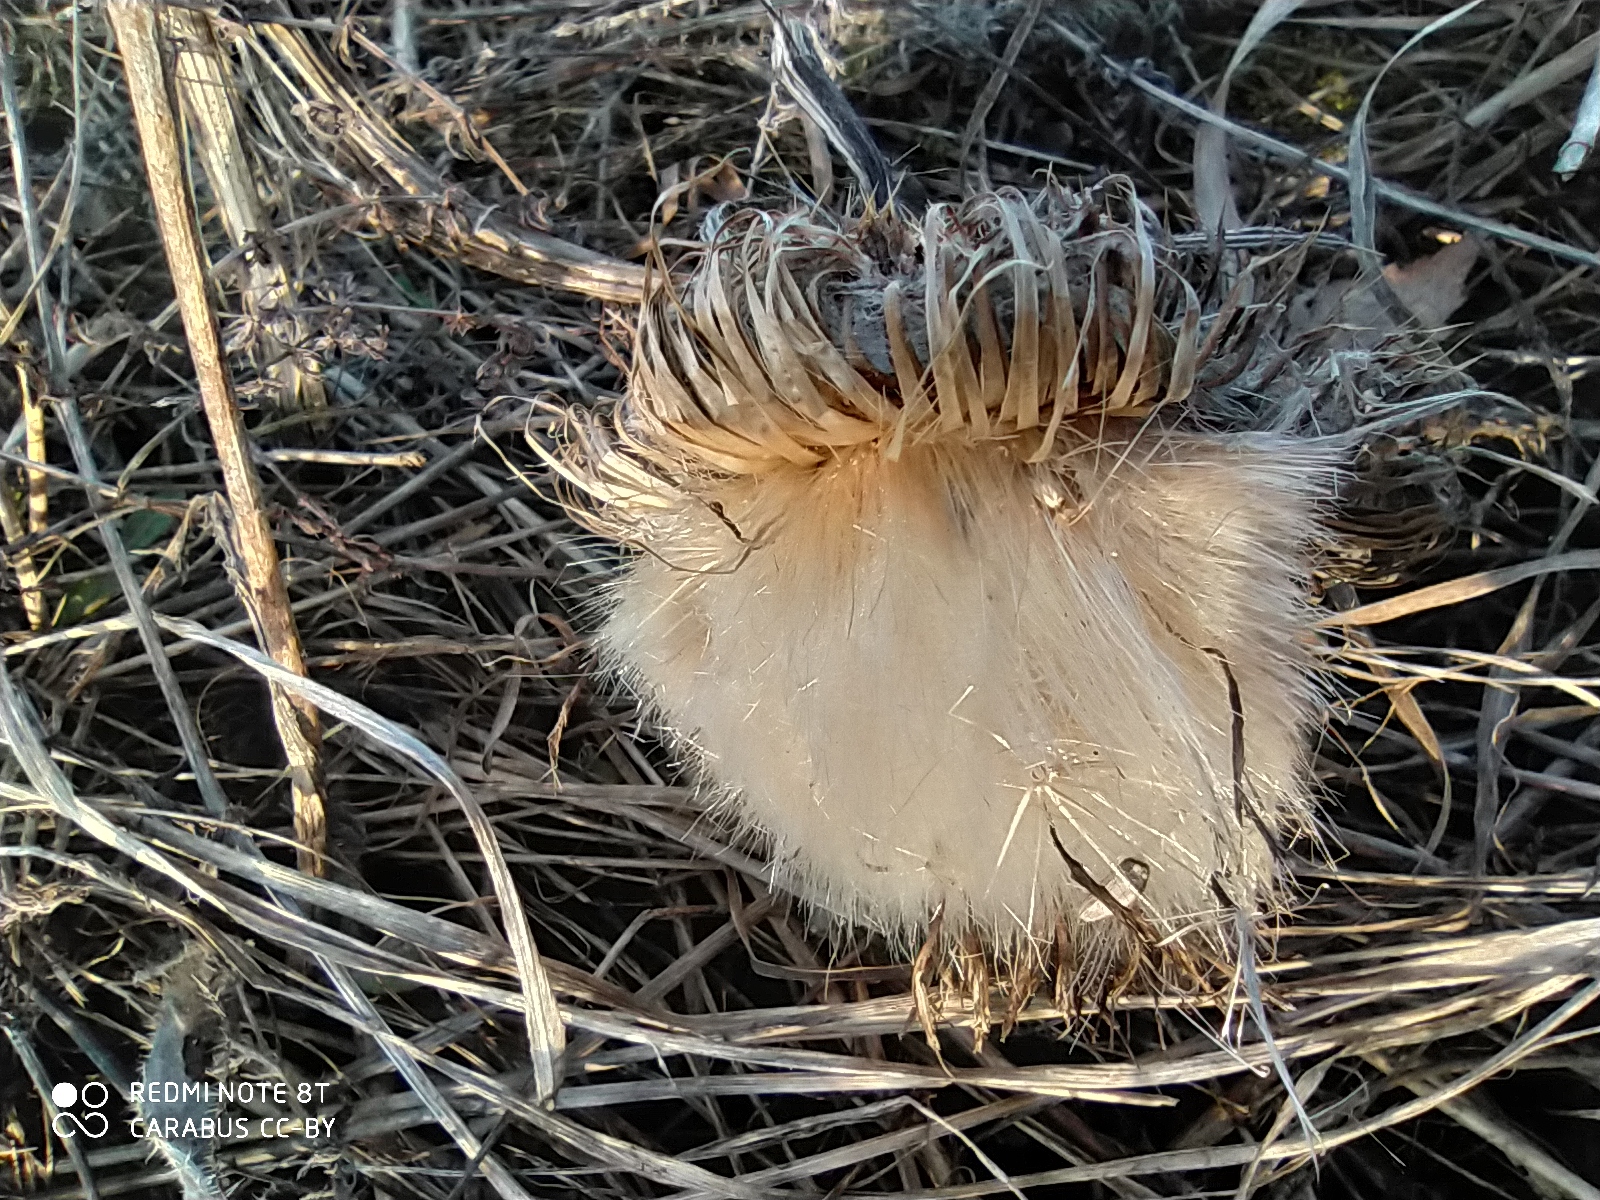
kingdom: Plantae
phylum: Tracheophyta
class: Magnoliopsida
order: Asterales
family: Asteraceae
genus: Cirsium
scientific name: Cirsium vulgare
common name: Bull thistle
